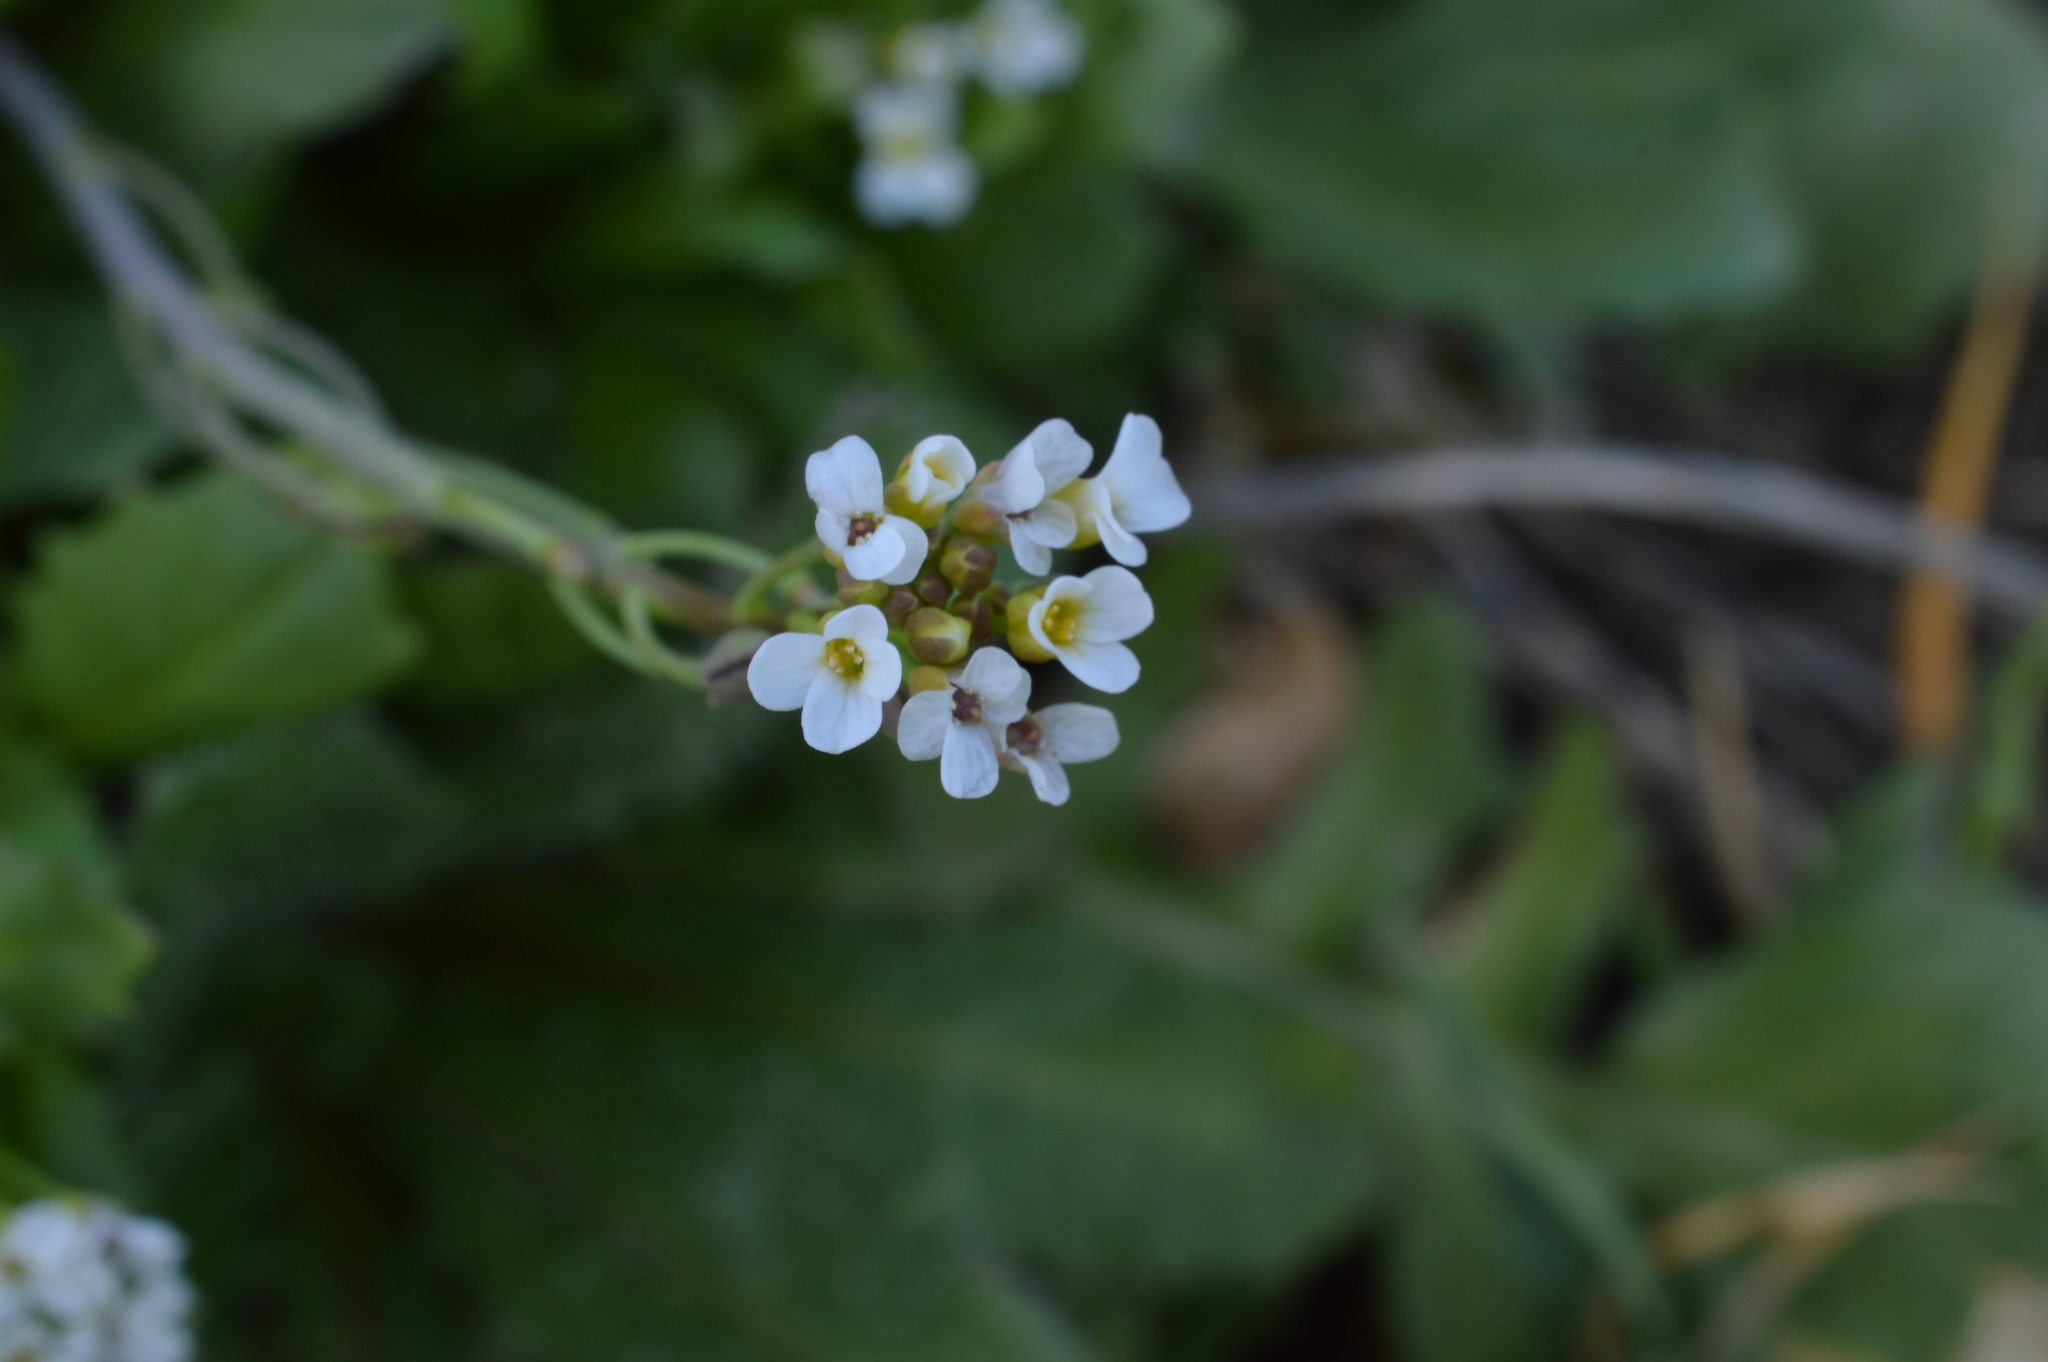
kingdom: Plantae
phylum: Tracheophyta
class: Magnoliopsida
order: Brassicales
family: Brassicaceae
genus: Capsella
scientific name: Capsella bursa-pastoris
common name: Shepherd's purse
